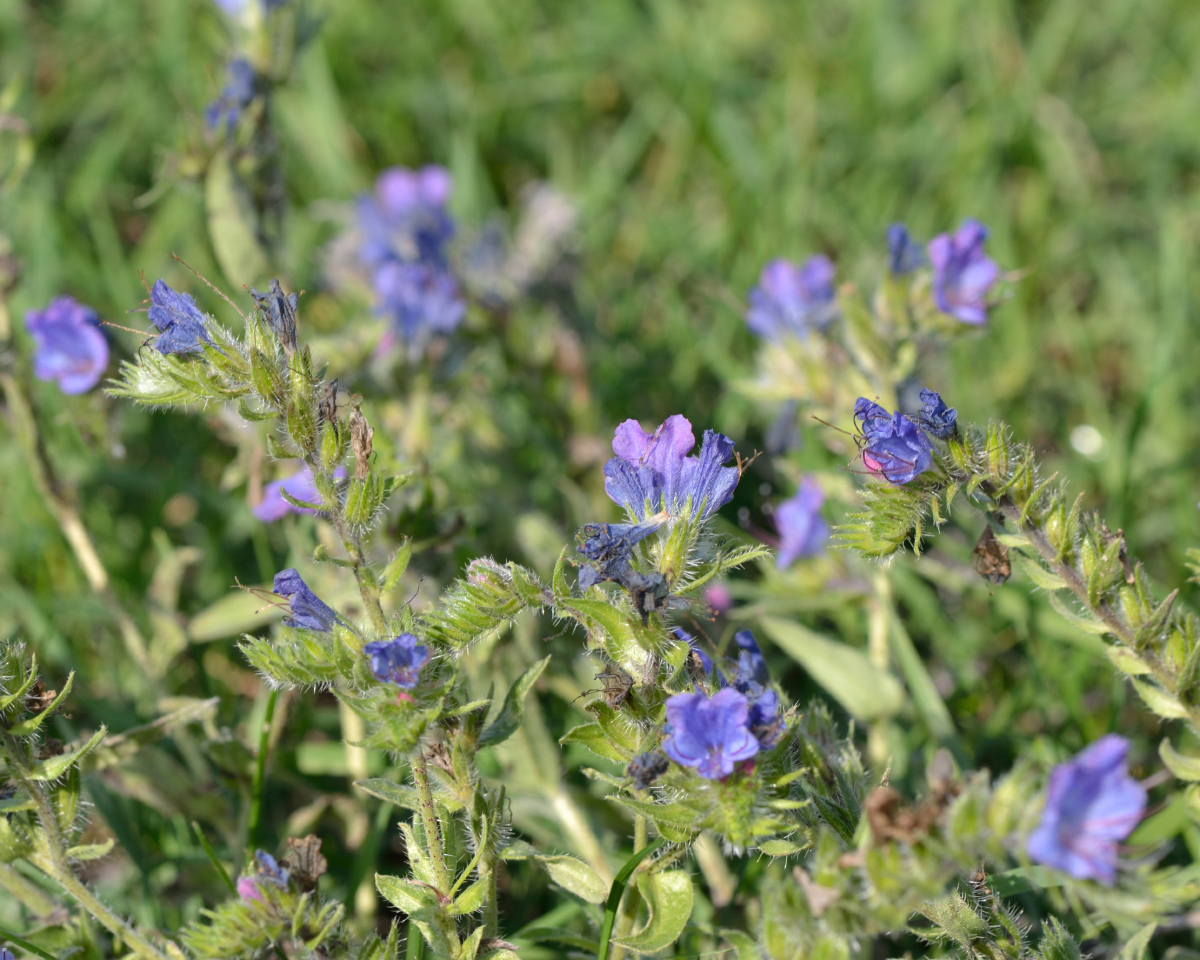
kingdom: Plantae
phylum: Tracheophyta
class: Magnoliopsida
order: Boraginales
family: Boraginaceae
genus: Echium
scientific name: Echium vulgare
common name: Common viper's bugloss
